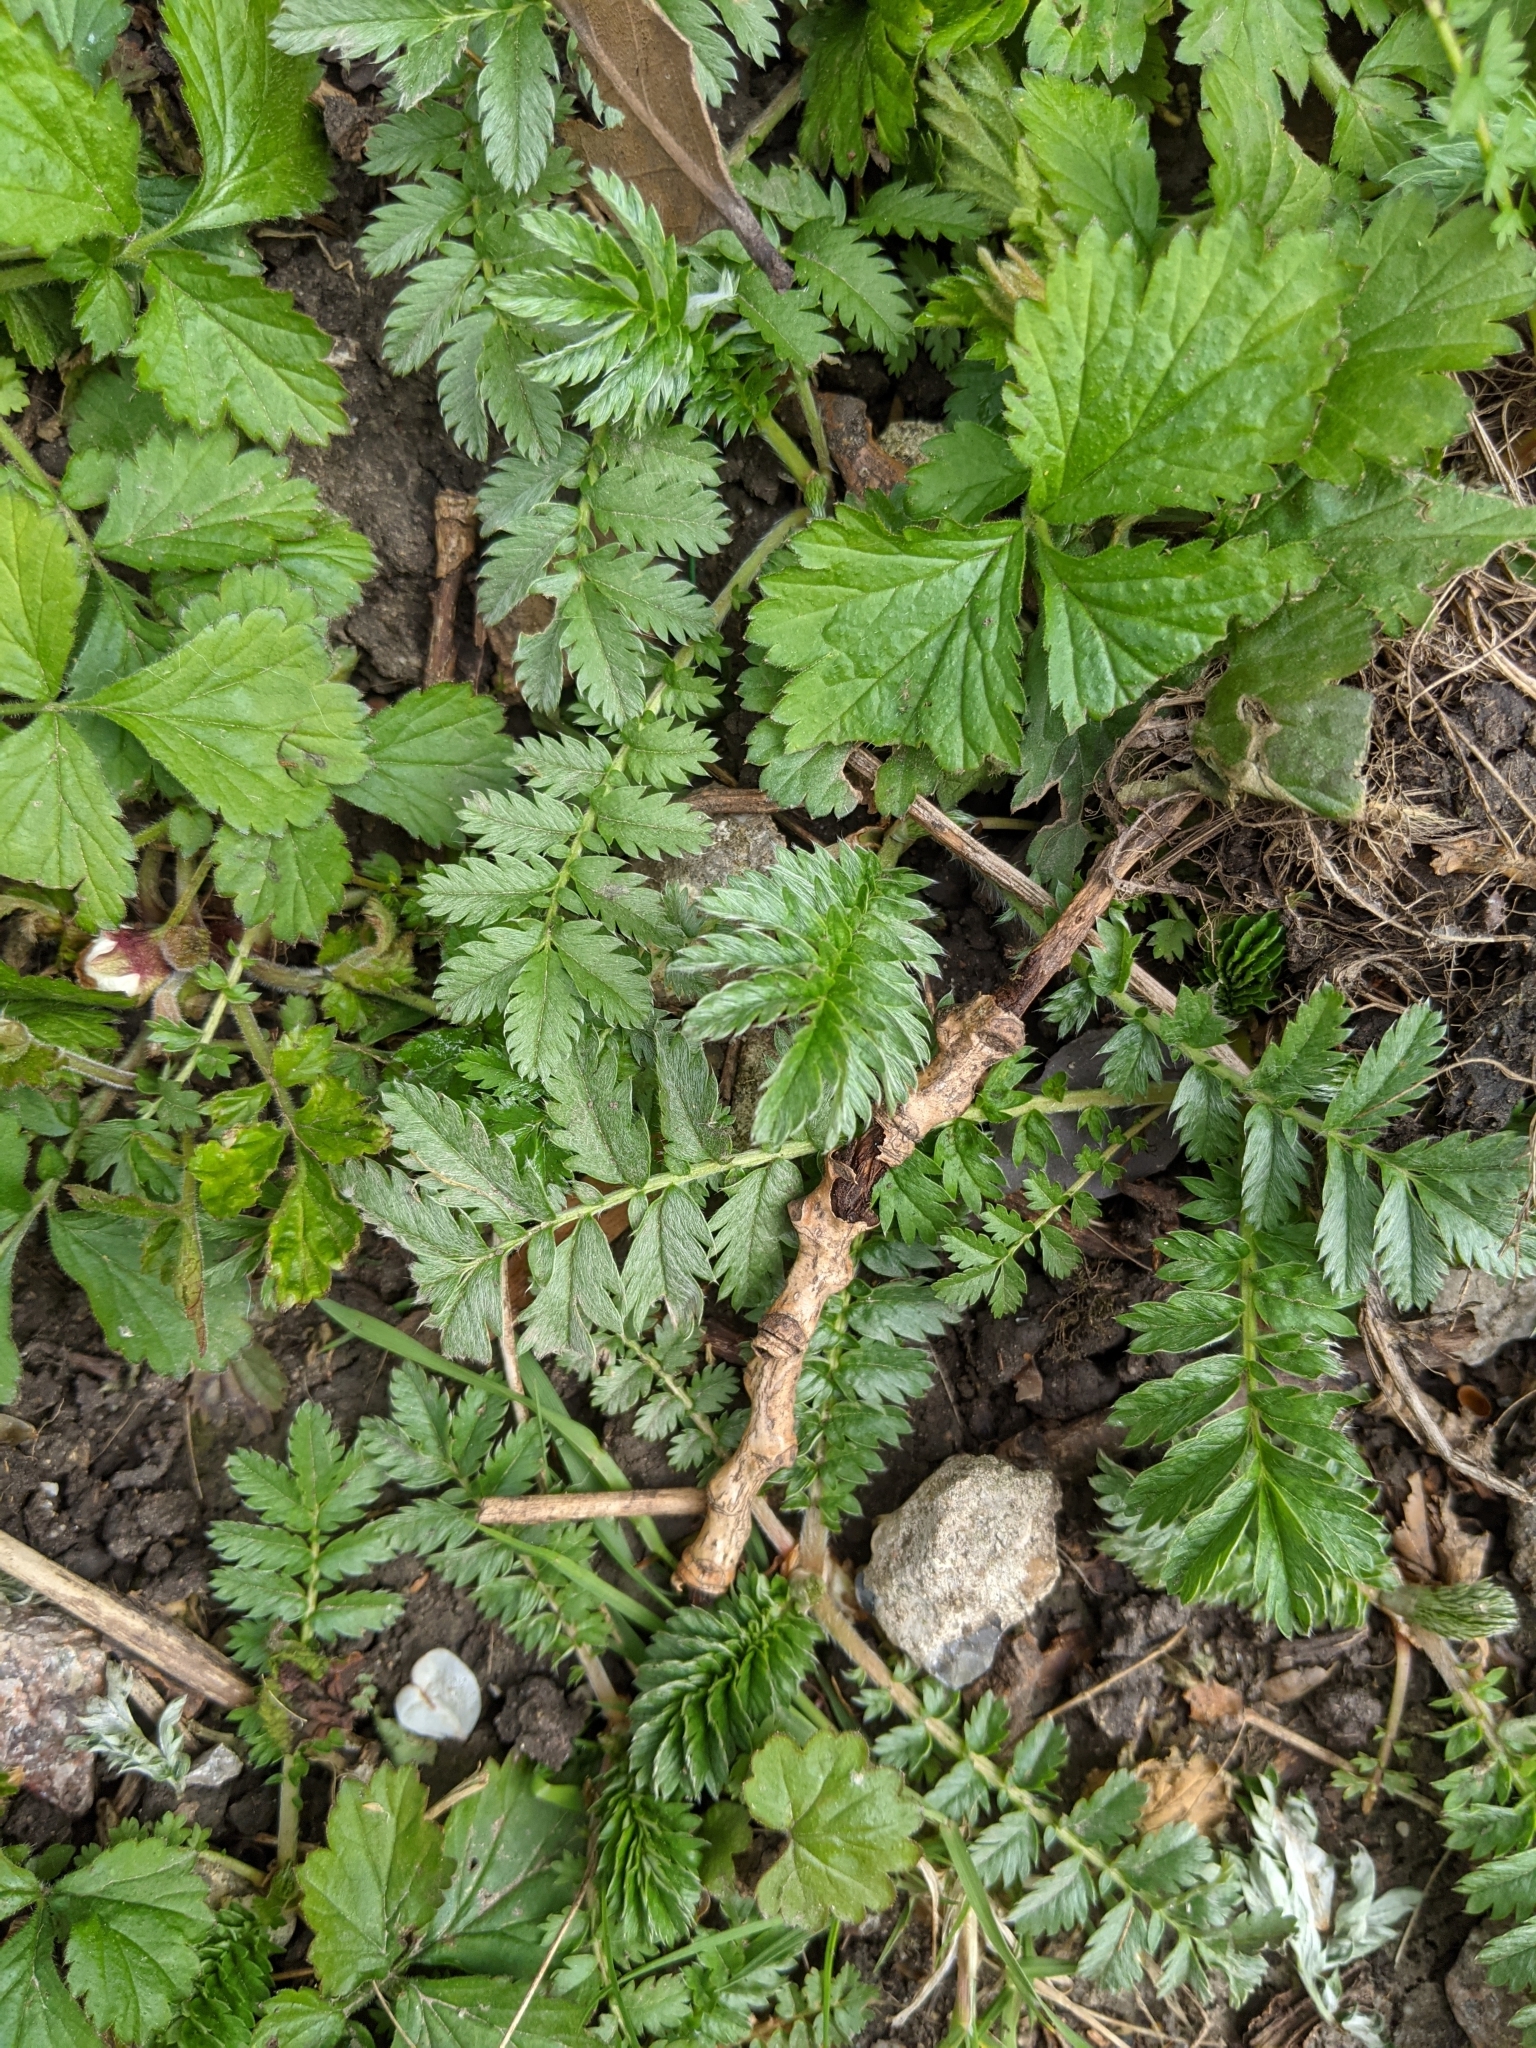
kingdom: Plantae
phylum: Tracheophyta
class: Magnoliopsida
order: Rosales
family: Rosaceae
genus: Argentina
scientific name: Argentina anserina
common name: Common silverweed
